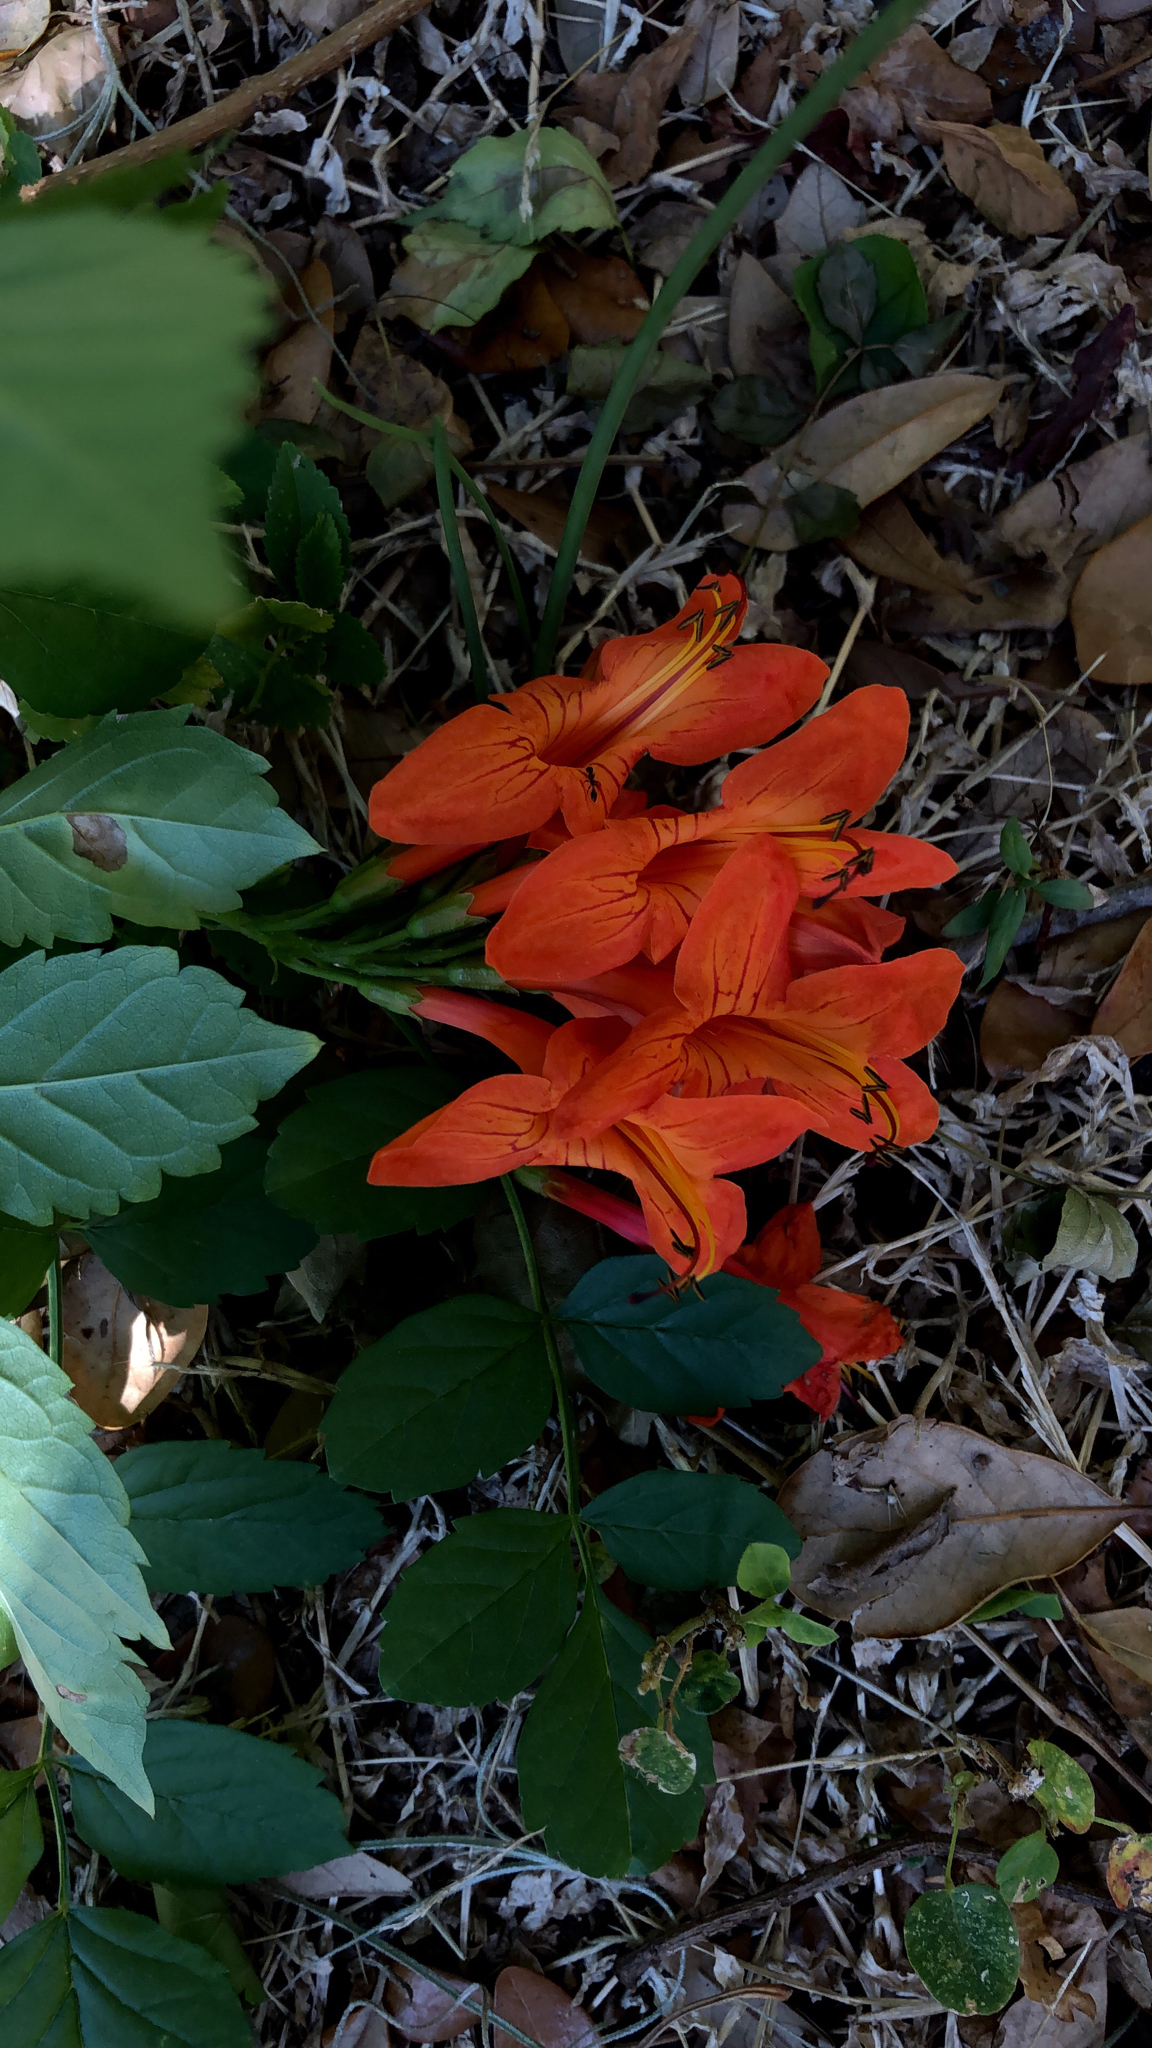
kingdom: Plantae
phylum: Tracheophyta
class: Magnoliopsida
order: Lamiales
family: Bignoniaceae
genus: Tecomaria
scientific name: Tecomaria capensis
